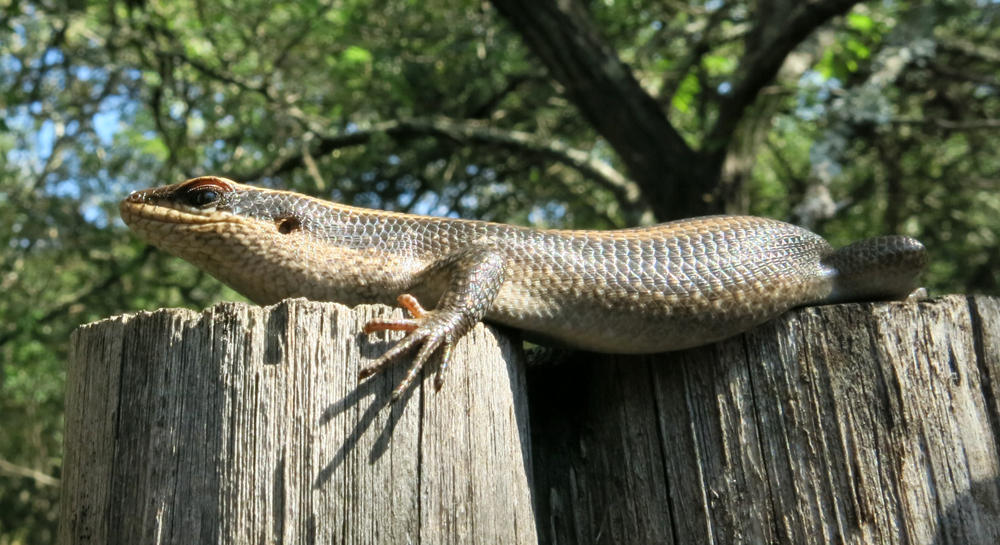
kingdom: Animalia
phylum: Chordata
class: Squamata
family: Scincidae
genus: Trachylepis
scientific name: Trachylepis striata
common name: African striped mabuya
